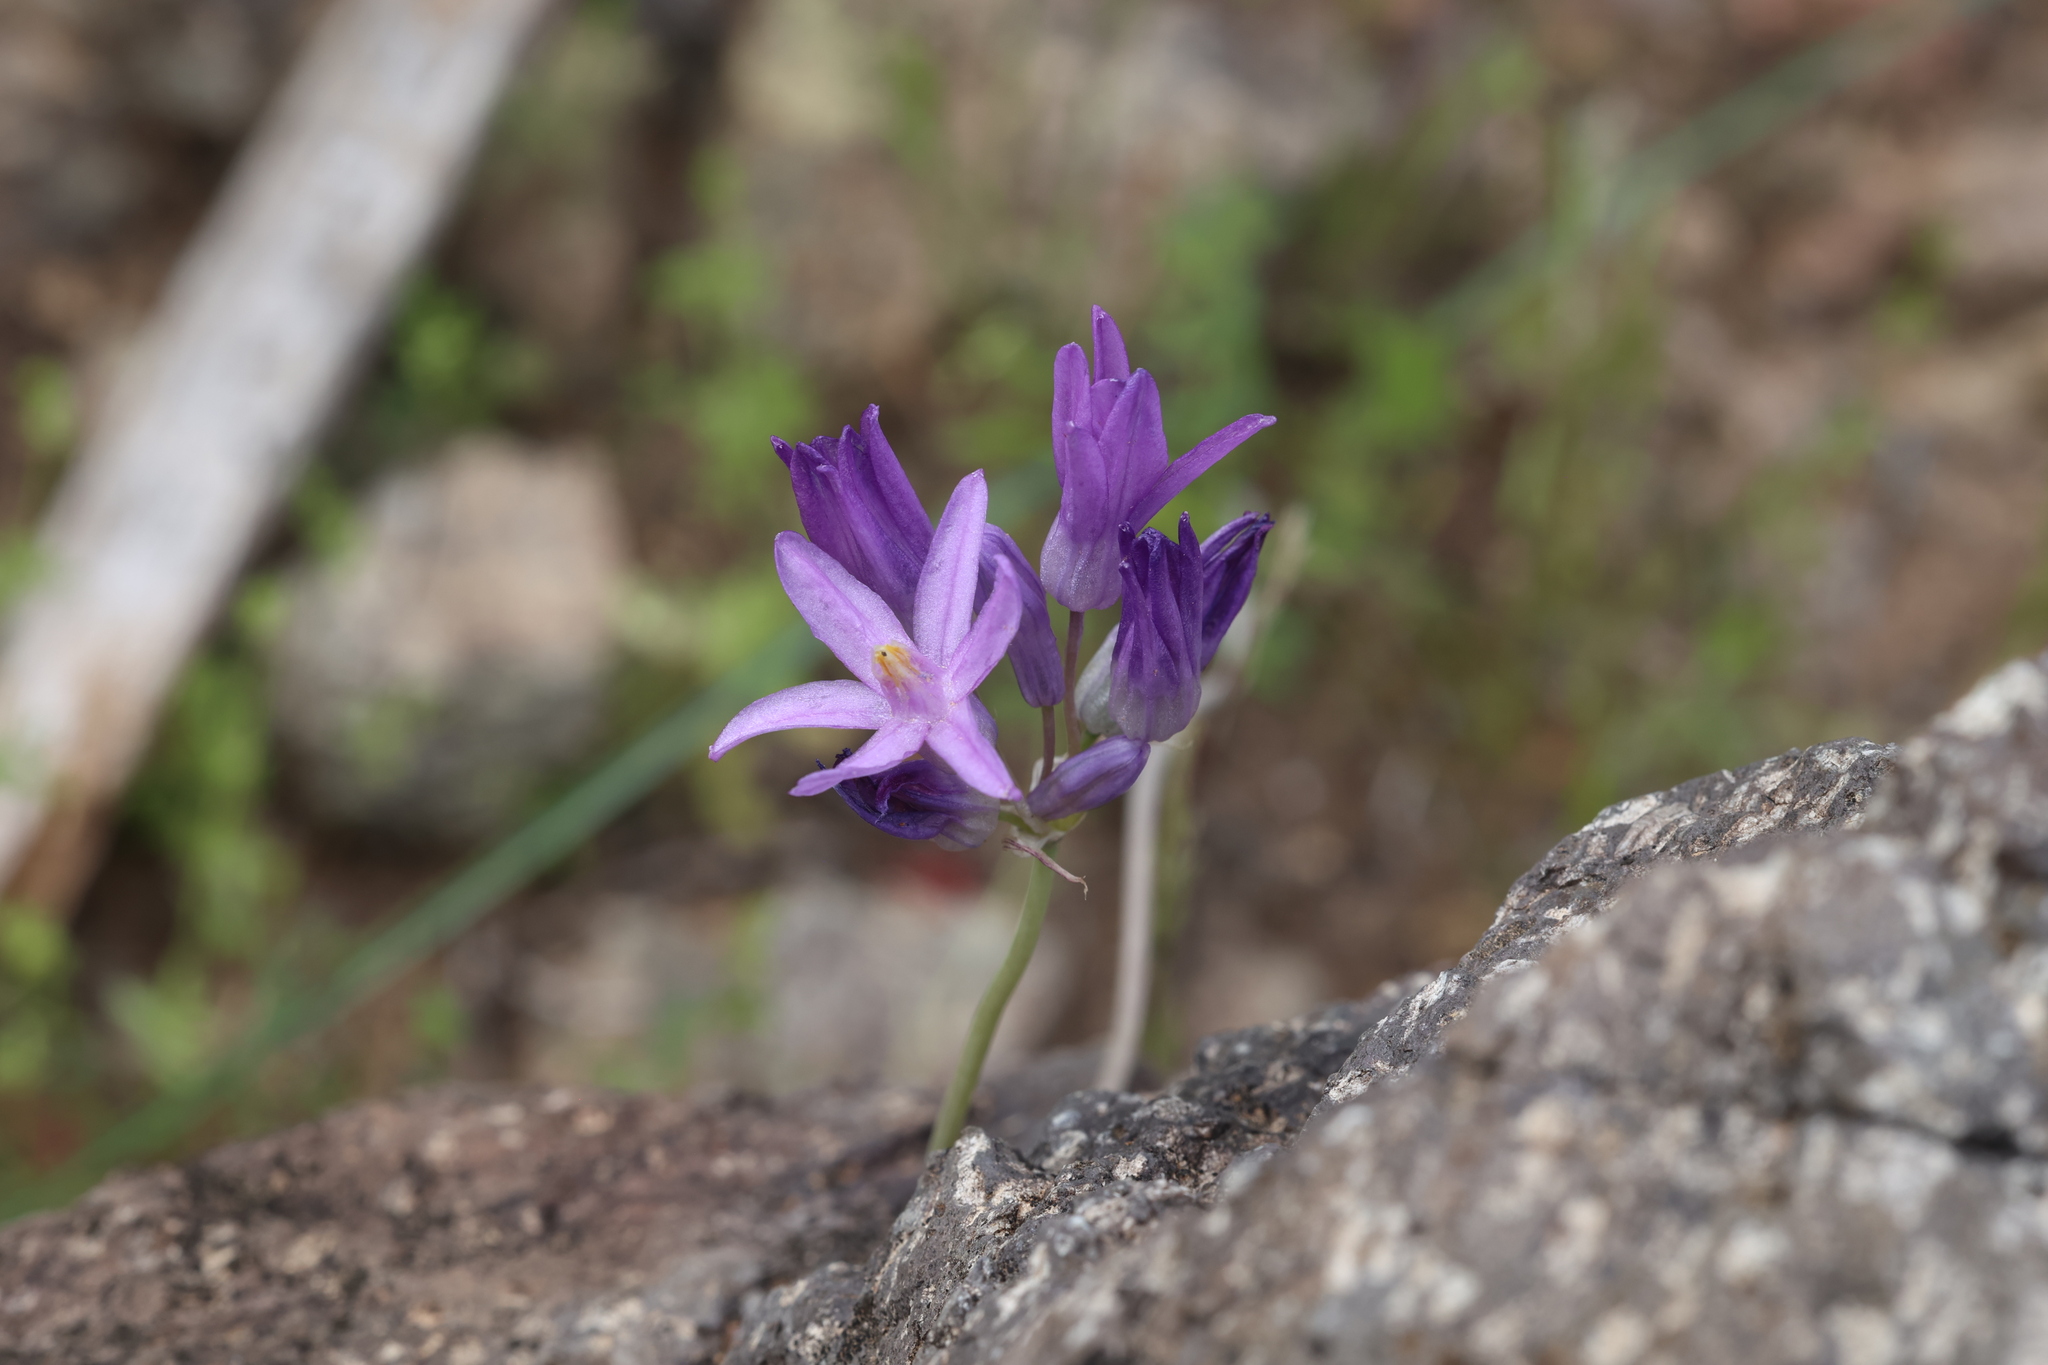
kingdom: Plantae
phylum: Tracheophyta
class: Liliopsida
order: Asparagales
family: Asparagaceae
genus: Dipterostemon
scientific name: Dipterostemon capitatus
